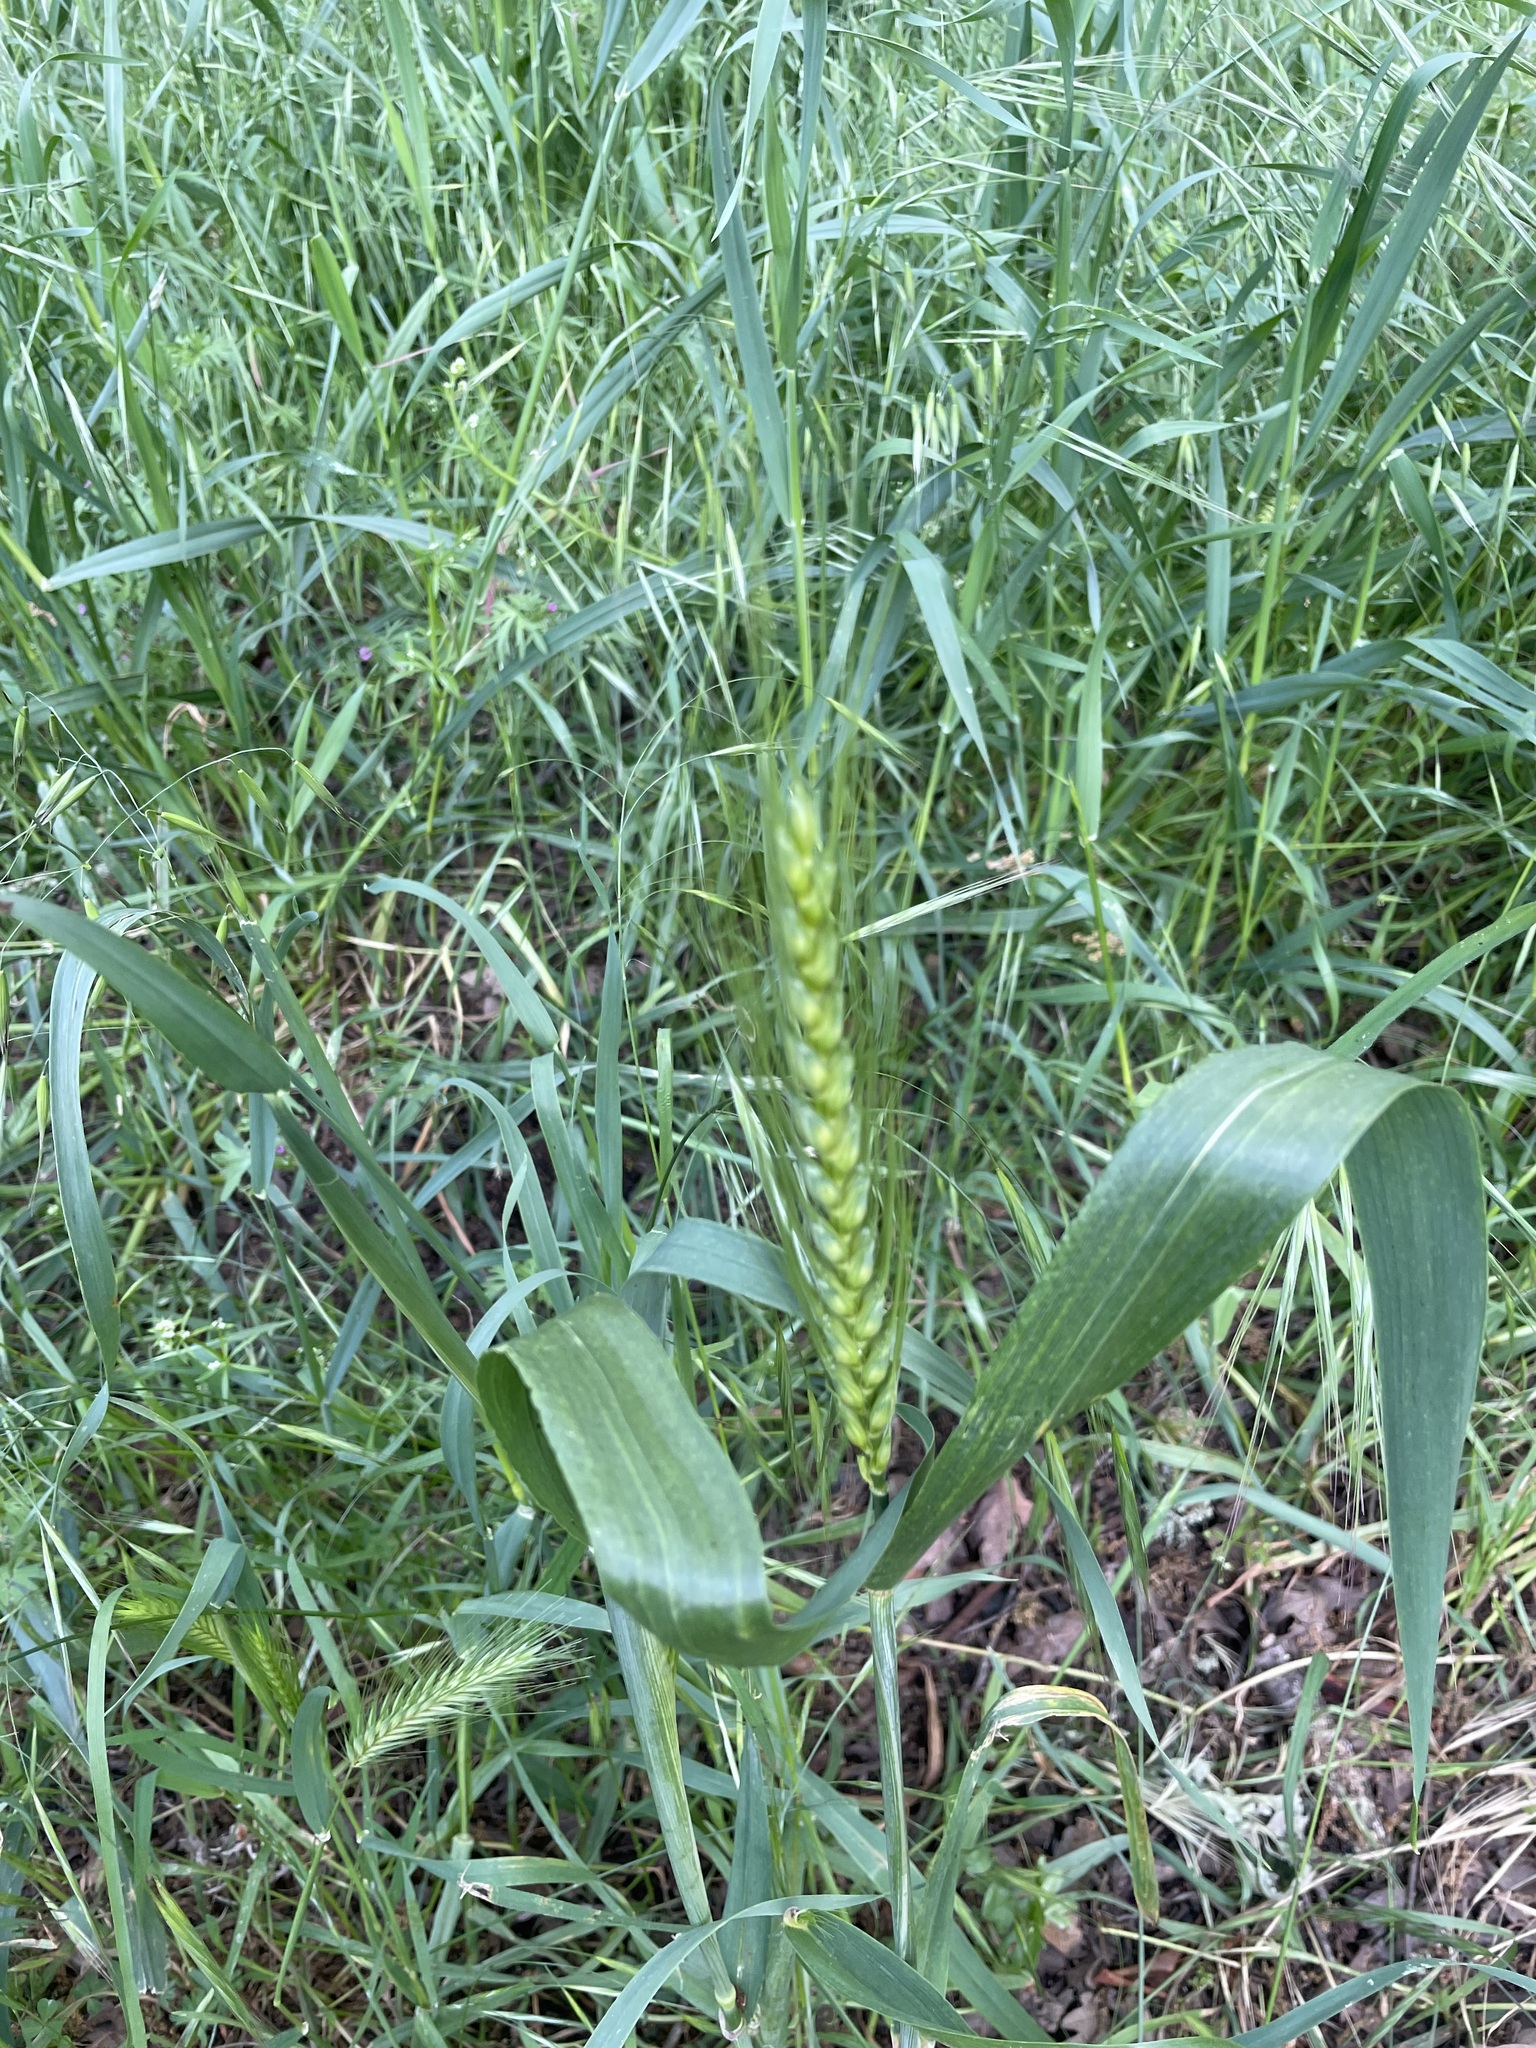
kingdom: Plantae
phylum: Tracheophyta
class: Liliopsida
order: Poales
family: Poaceae
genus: Triticum
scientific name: Triticum aestivum
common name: Common wheat
